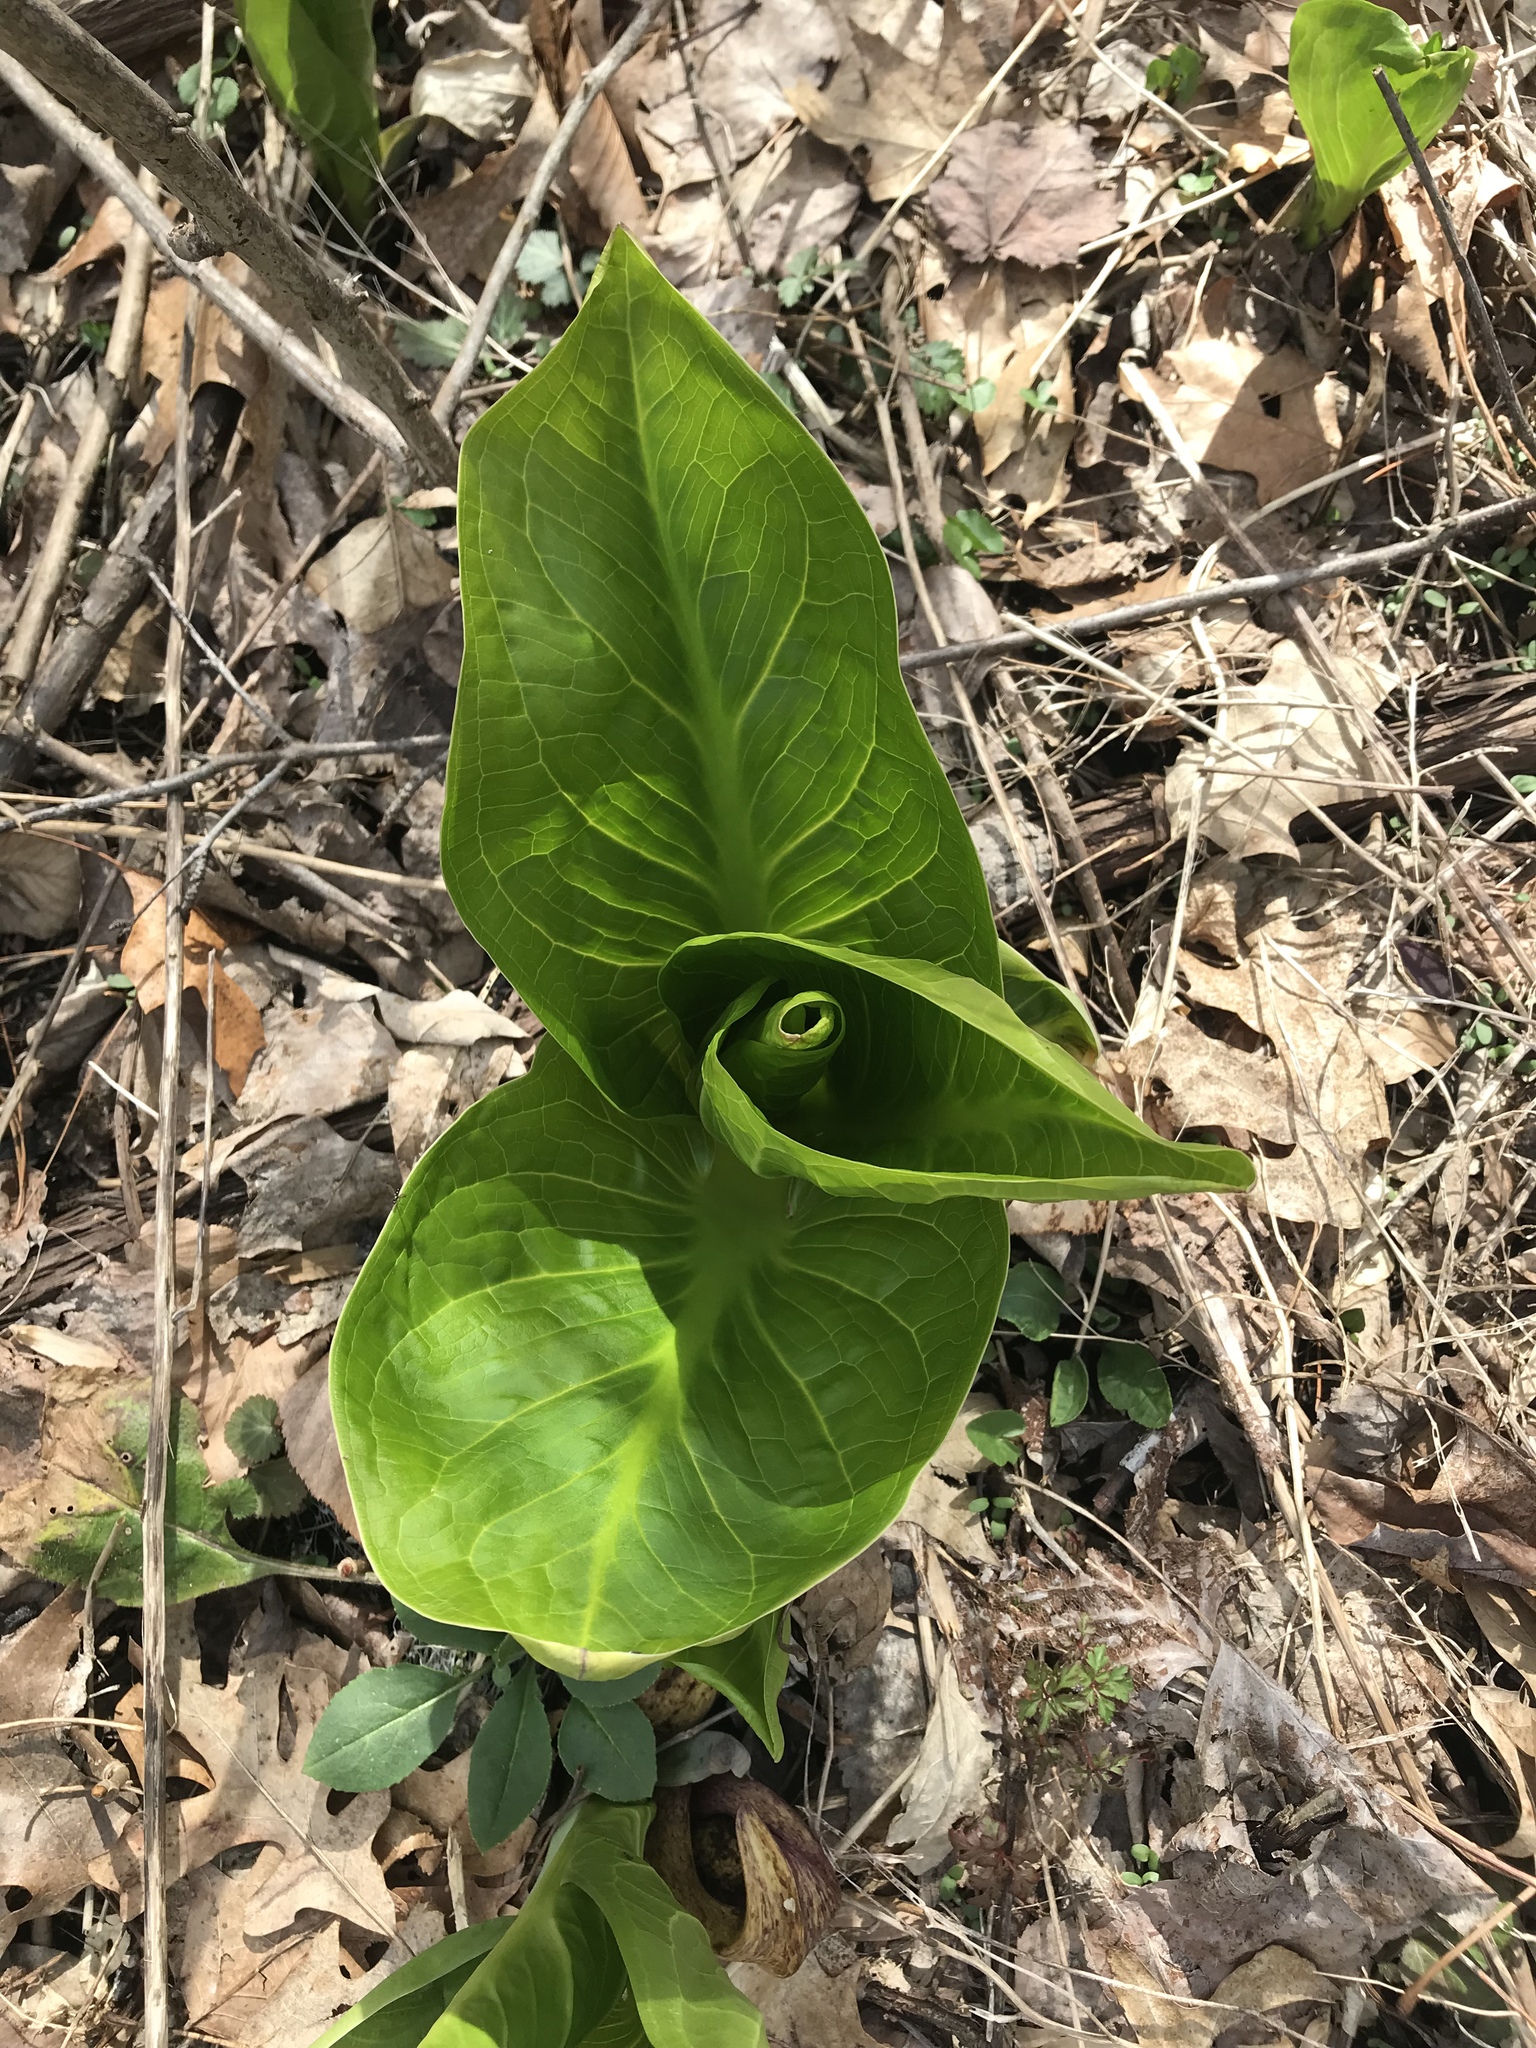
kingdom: Plantae
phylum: Tracheophyta
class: Liliopsida
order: Alismatales
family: Araceae
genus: Symplocarpus
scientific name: Symplocarpus foetidus
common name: Eastern skunk cabbage
